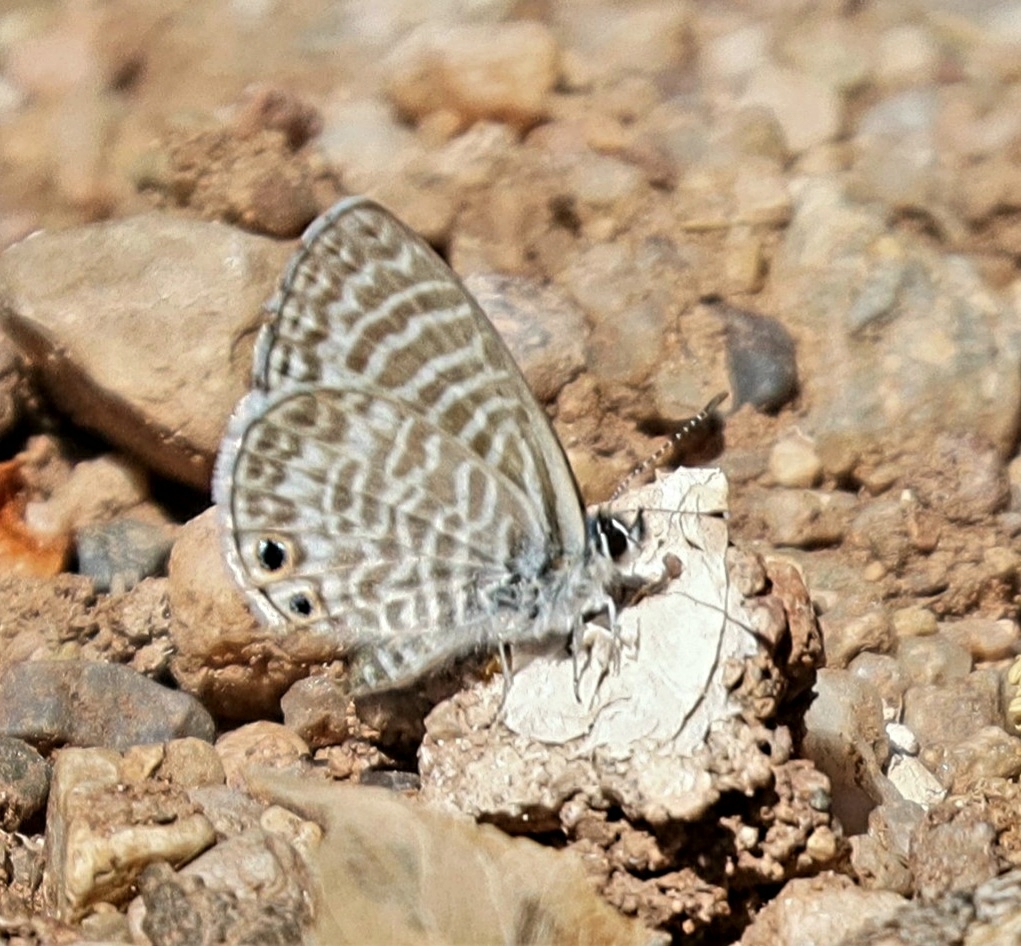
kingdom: Animalia
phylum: Arthropoda
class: Insecta
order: Lepidoptera
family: Lycaenidae
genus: Leptotes
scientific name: Leptotes marina
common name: Marine blue
